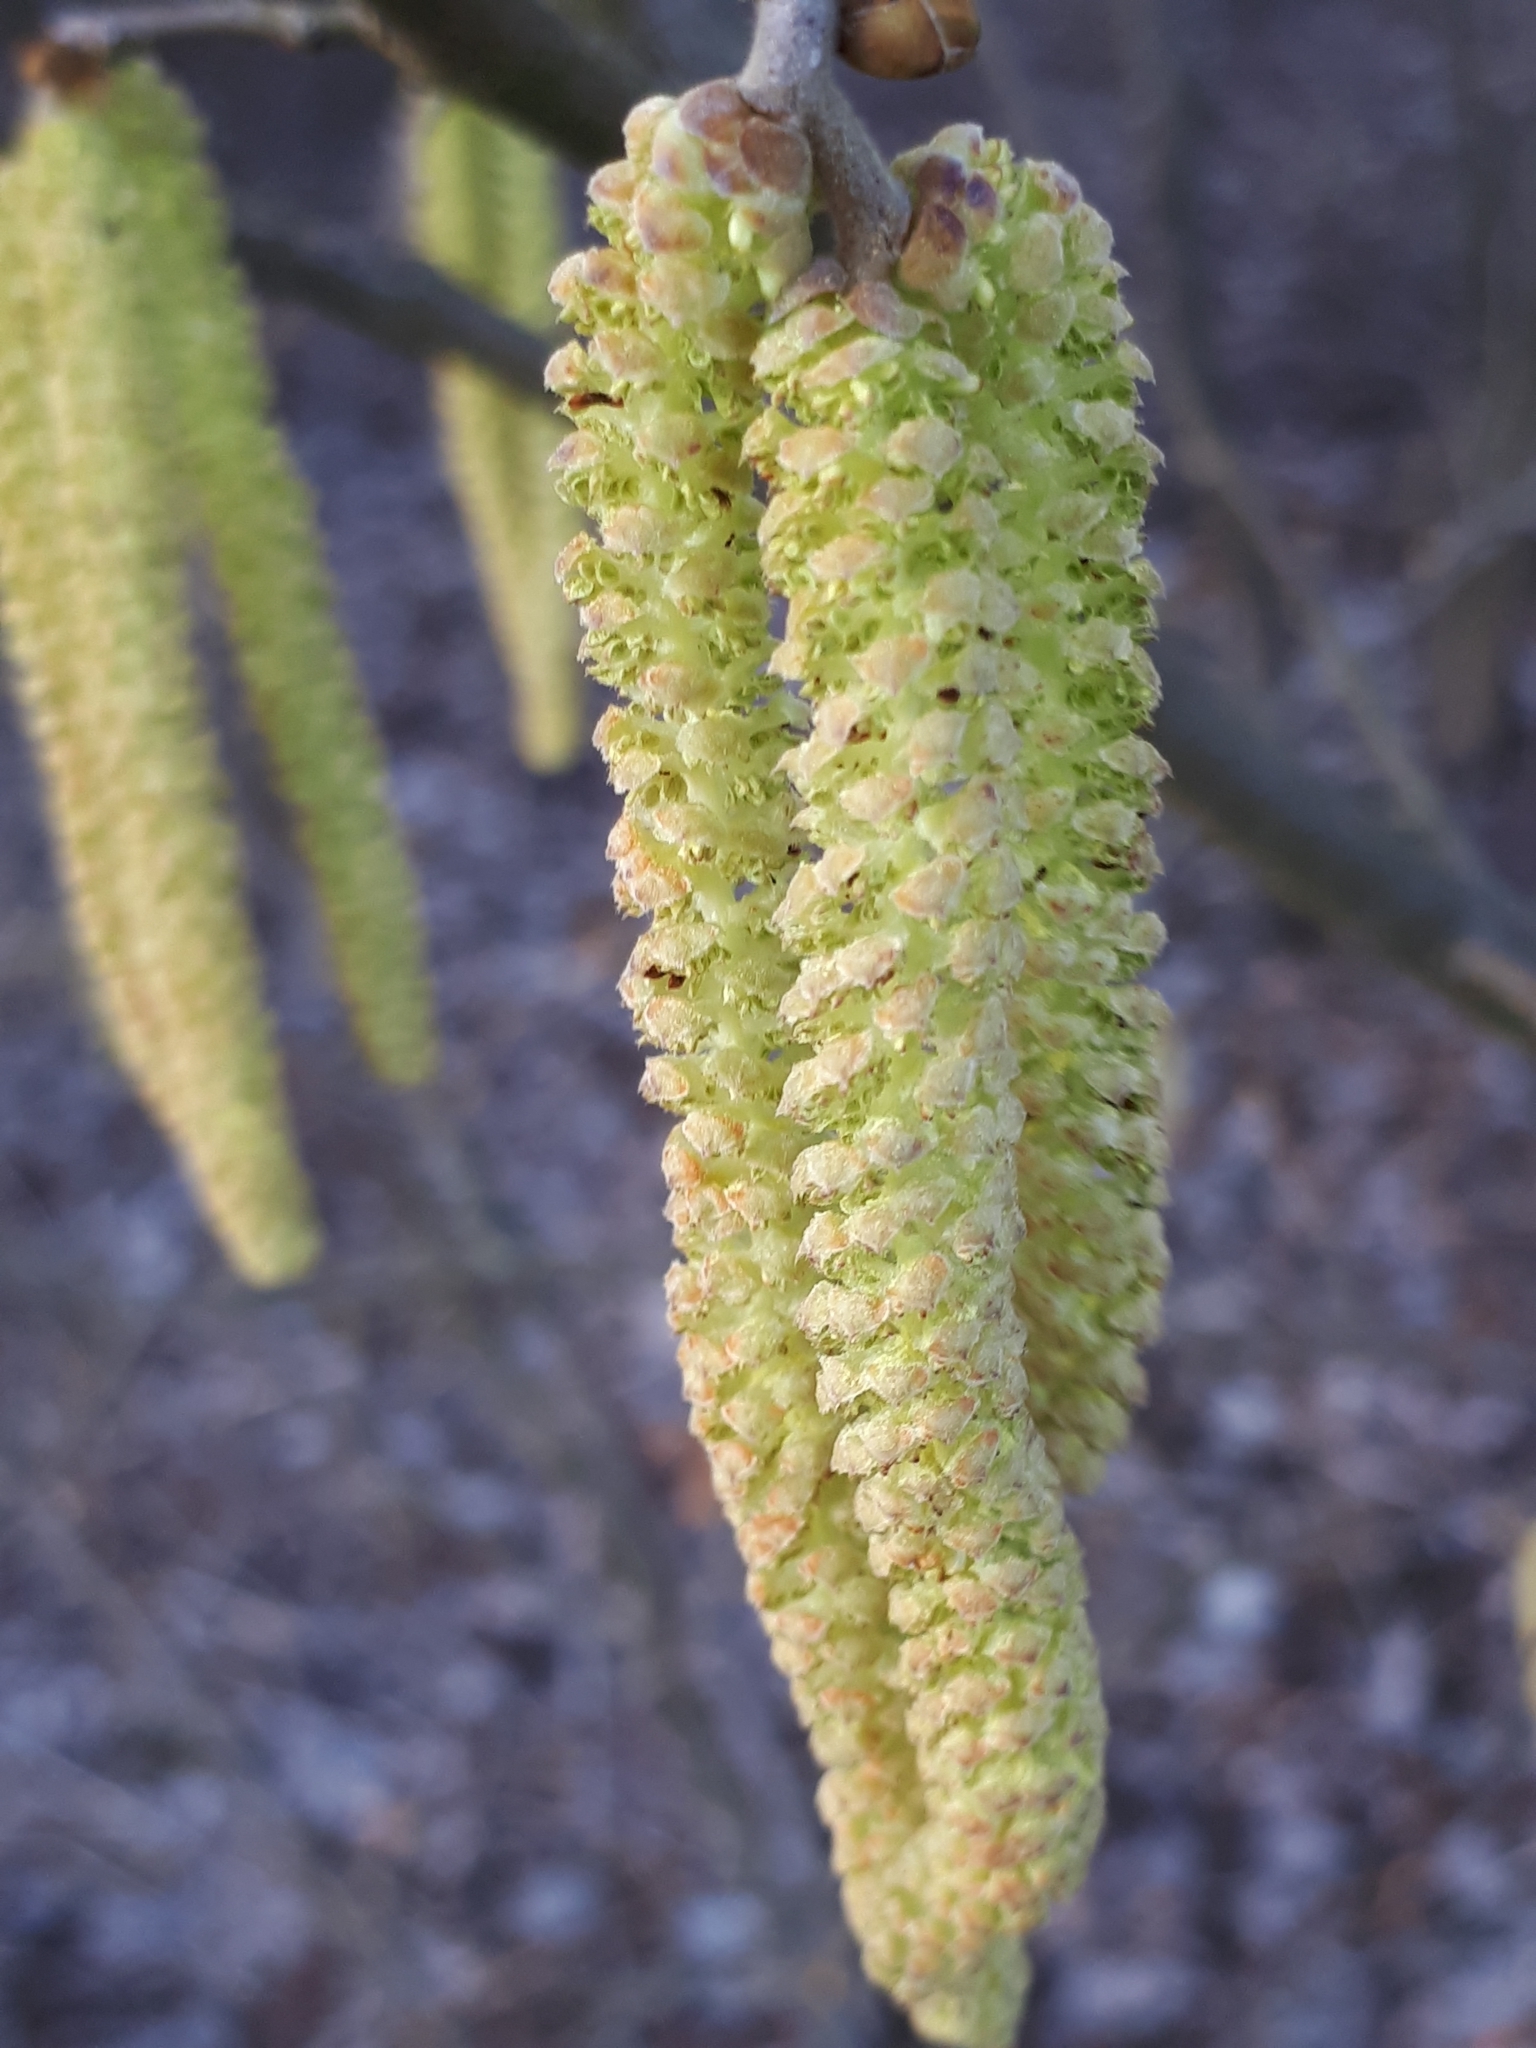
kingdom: Plantae
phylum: Tracheophyta
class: Magnoliopsida
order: Fagales
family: Betulaceae
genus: Corylus
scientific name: Corylus avellana
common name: European hazel
